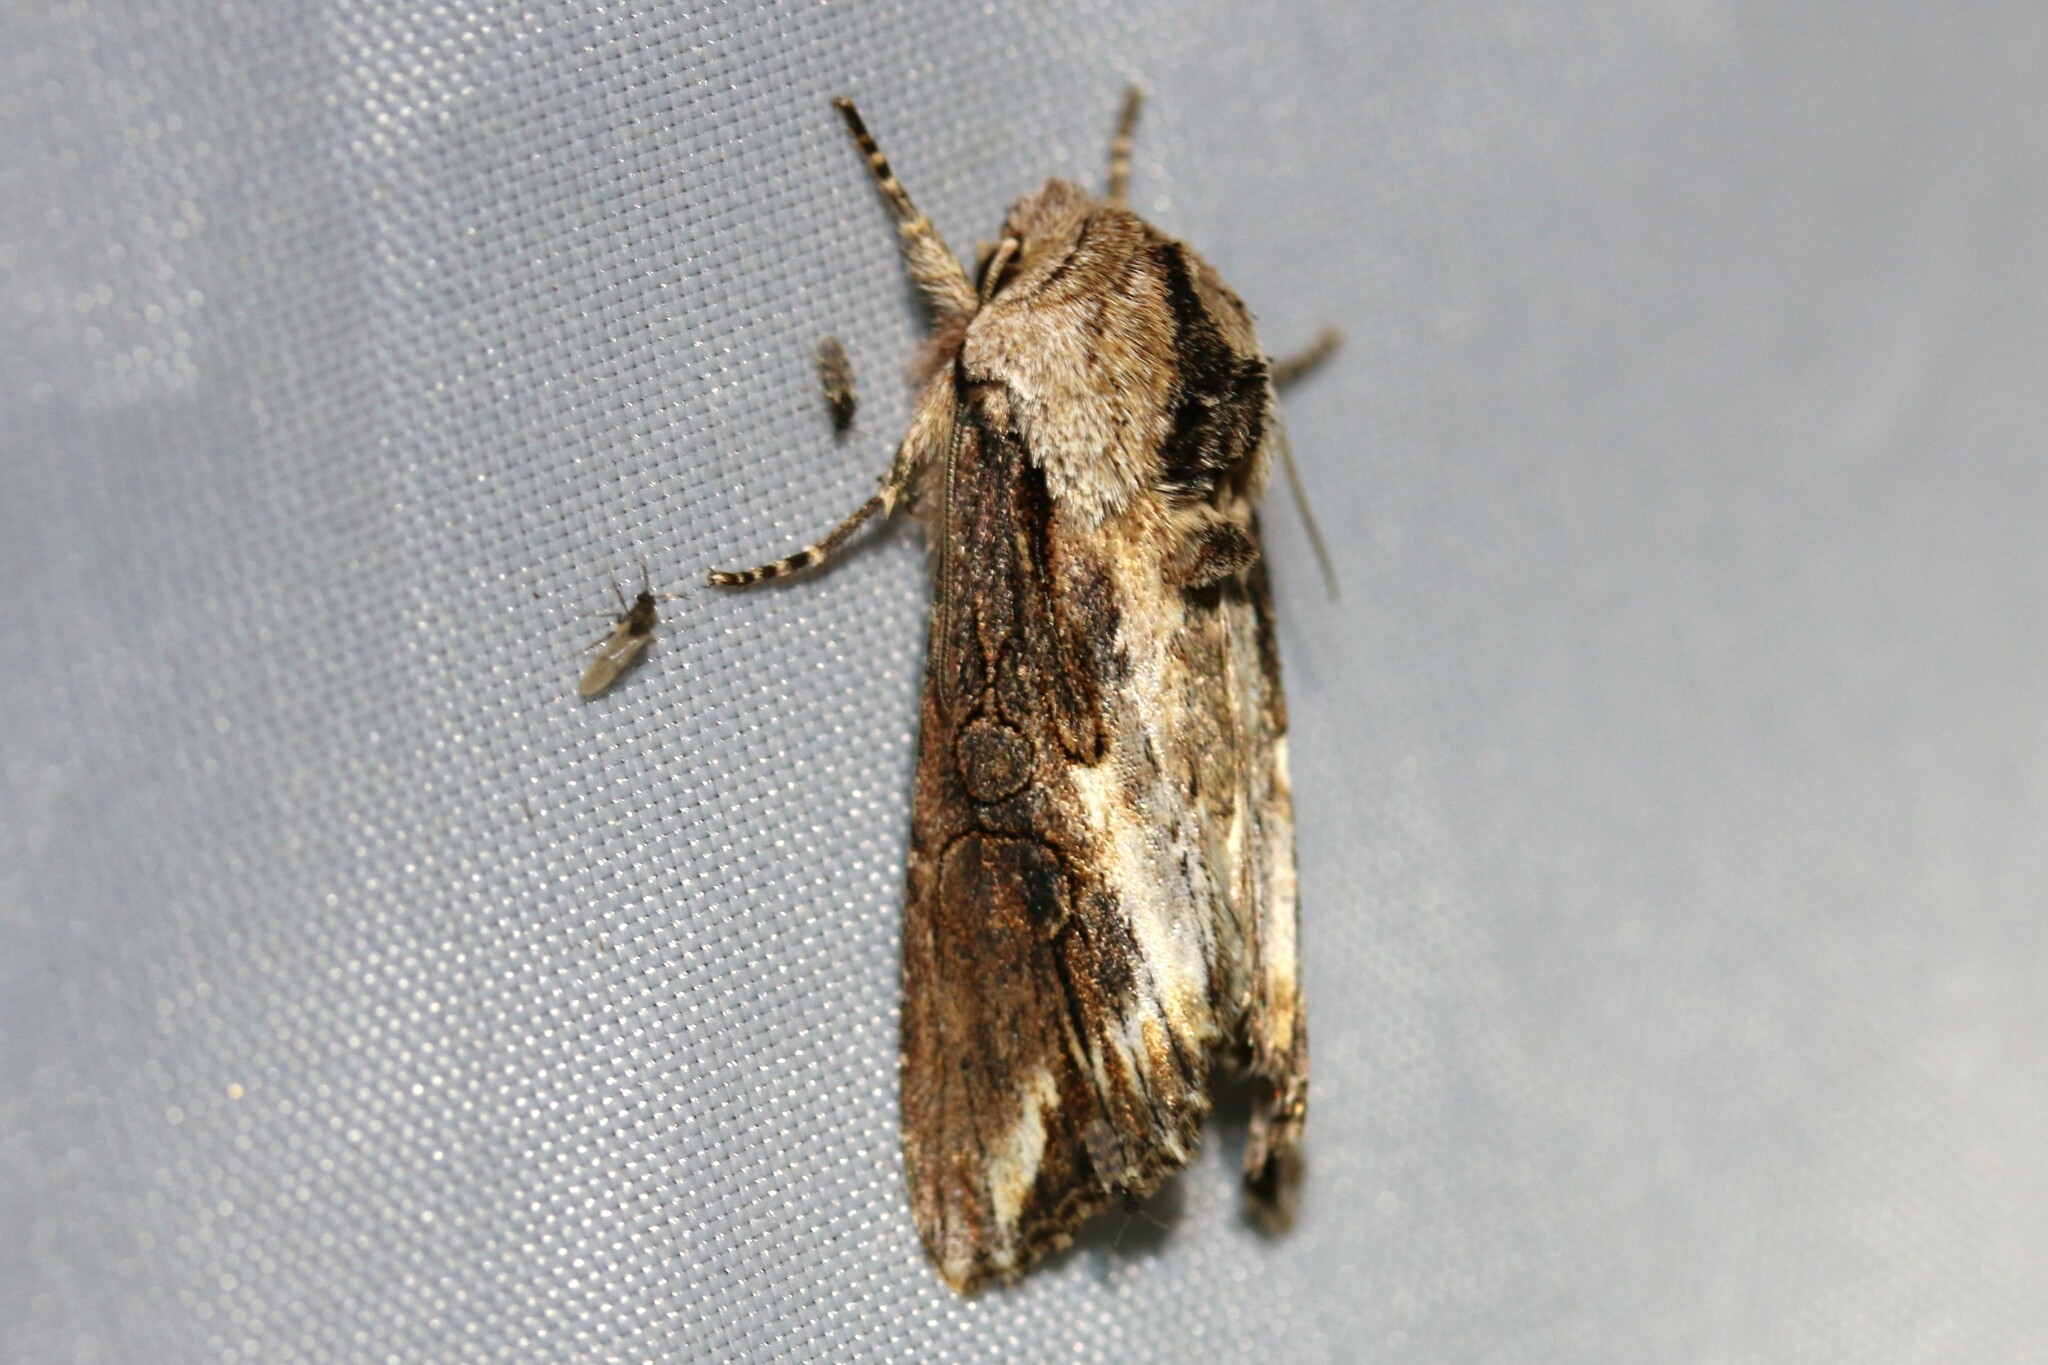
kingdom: Animalia
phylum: Arthropoda
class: Insecta
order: Lepidoptera
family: Noctuidae
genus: Egira
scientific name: Egira conspicillaris
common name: Silver cloud
